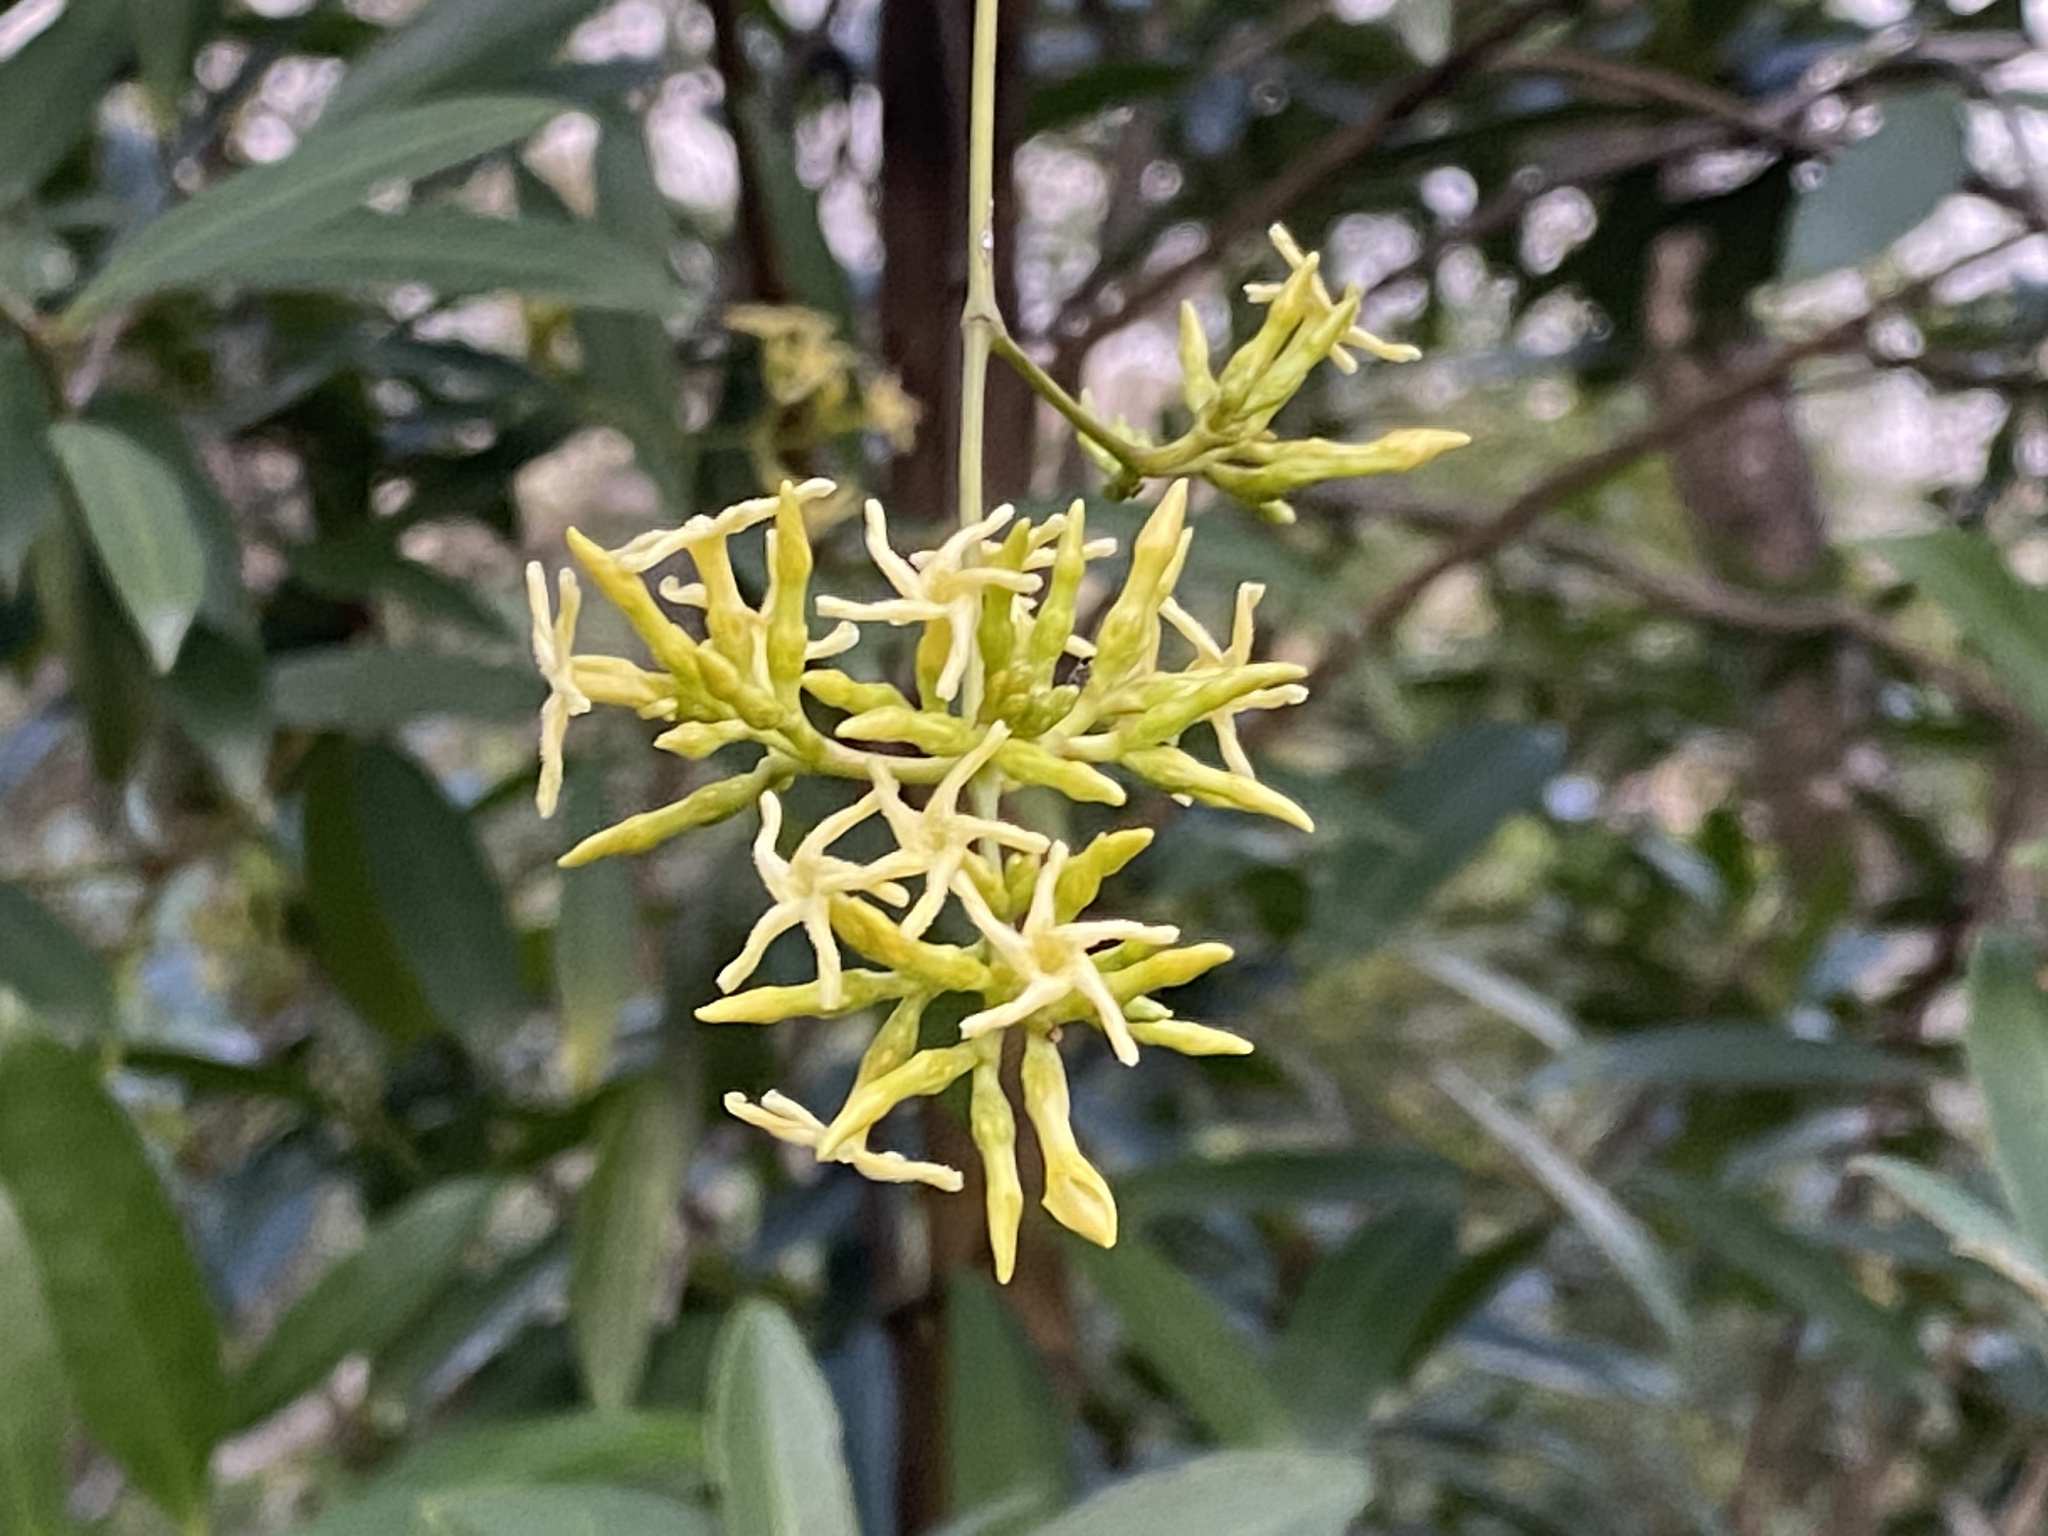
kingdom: Plantae
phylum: Tracheophyta
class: Magnoliopsida
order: Gentianales
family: Apocynaceae
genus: Anodendron
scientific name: Anodendron affine
